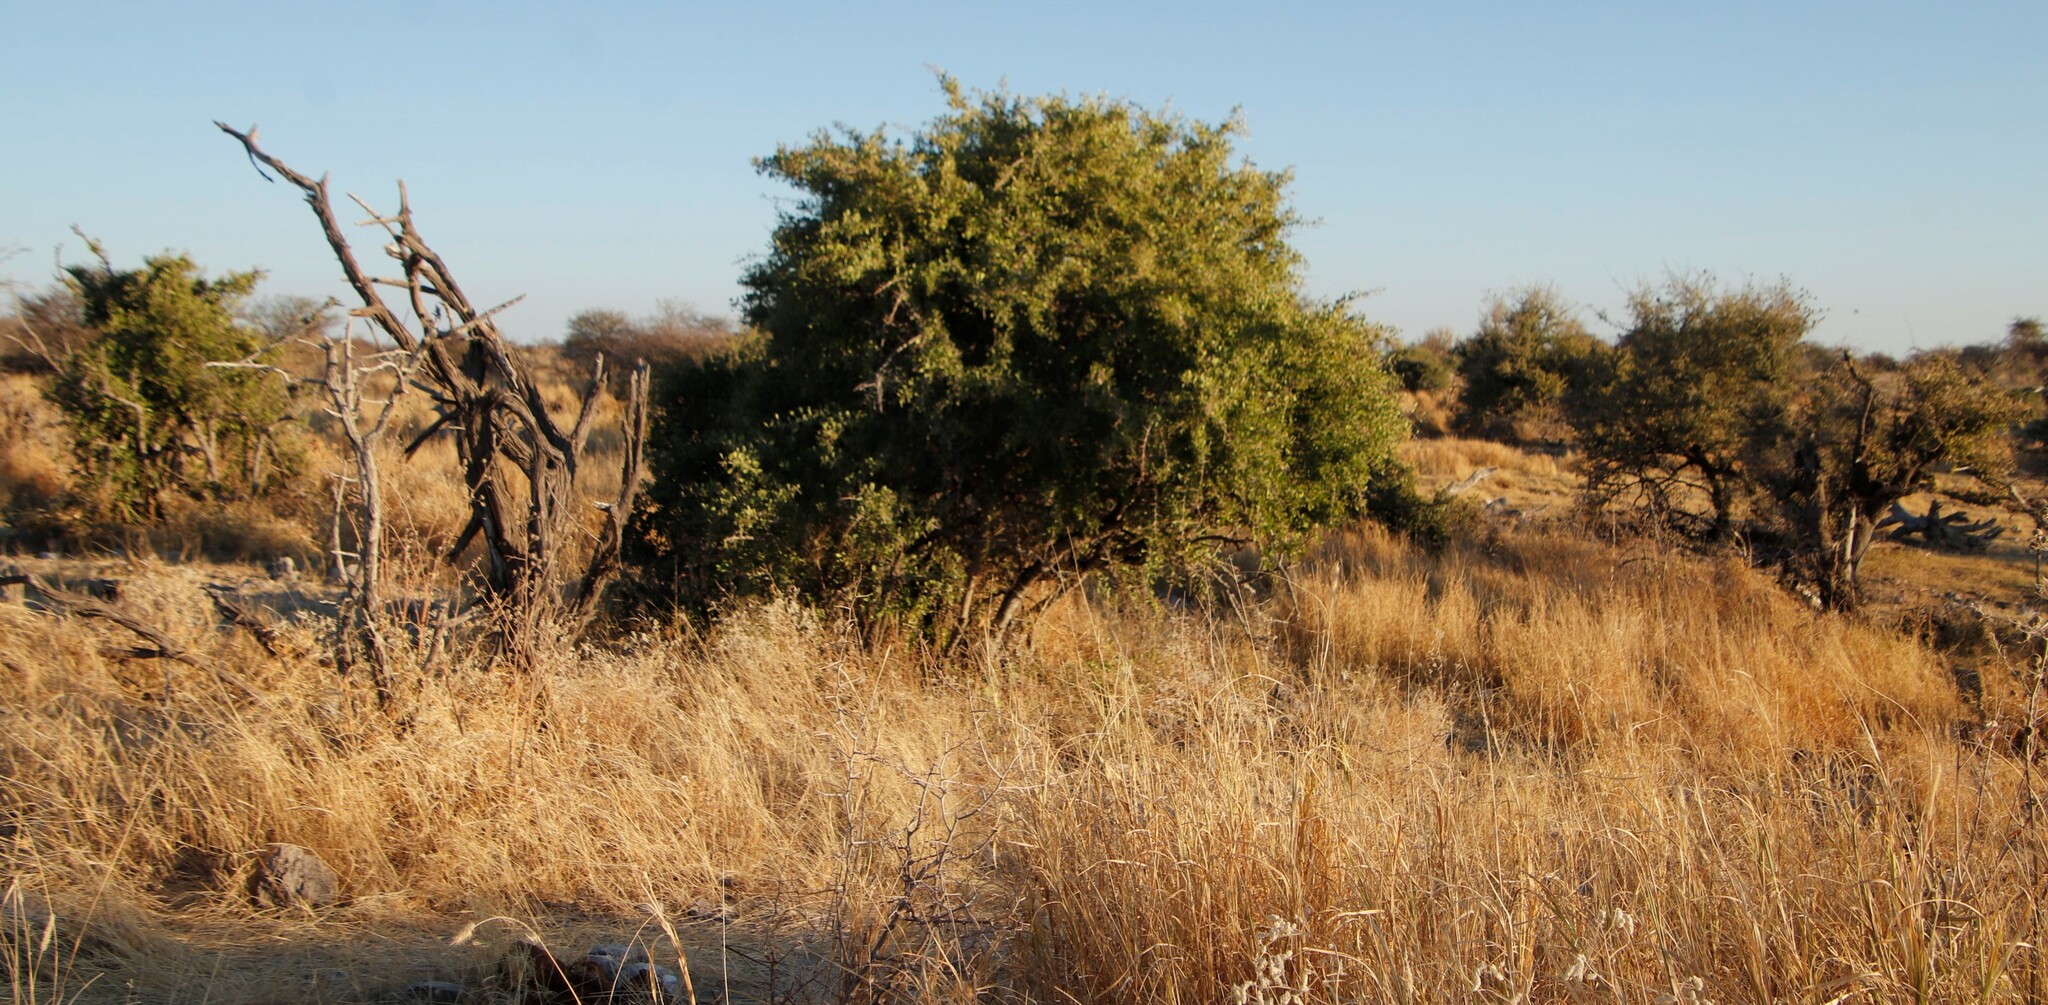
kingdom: Plantae
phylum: Tracheophyta
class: Magnoliopsida
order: Celastrales
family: Celastraceae
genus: Gymnosporia
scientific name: Gymnosporia senegalensis
